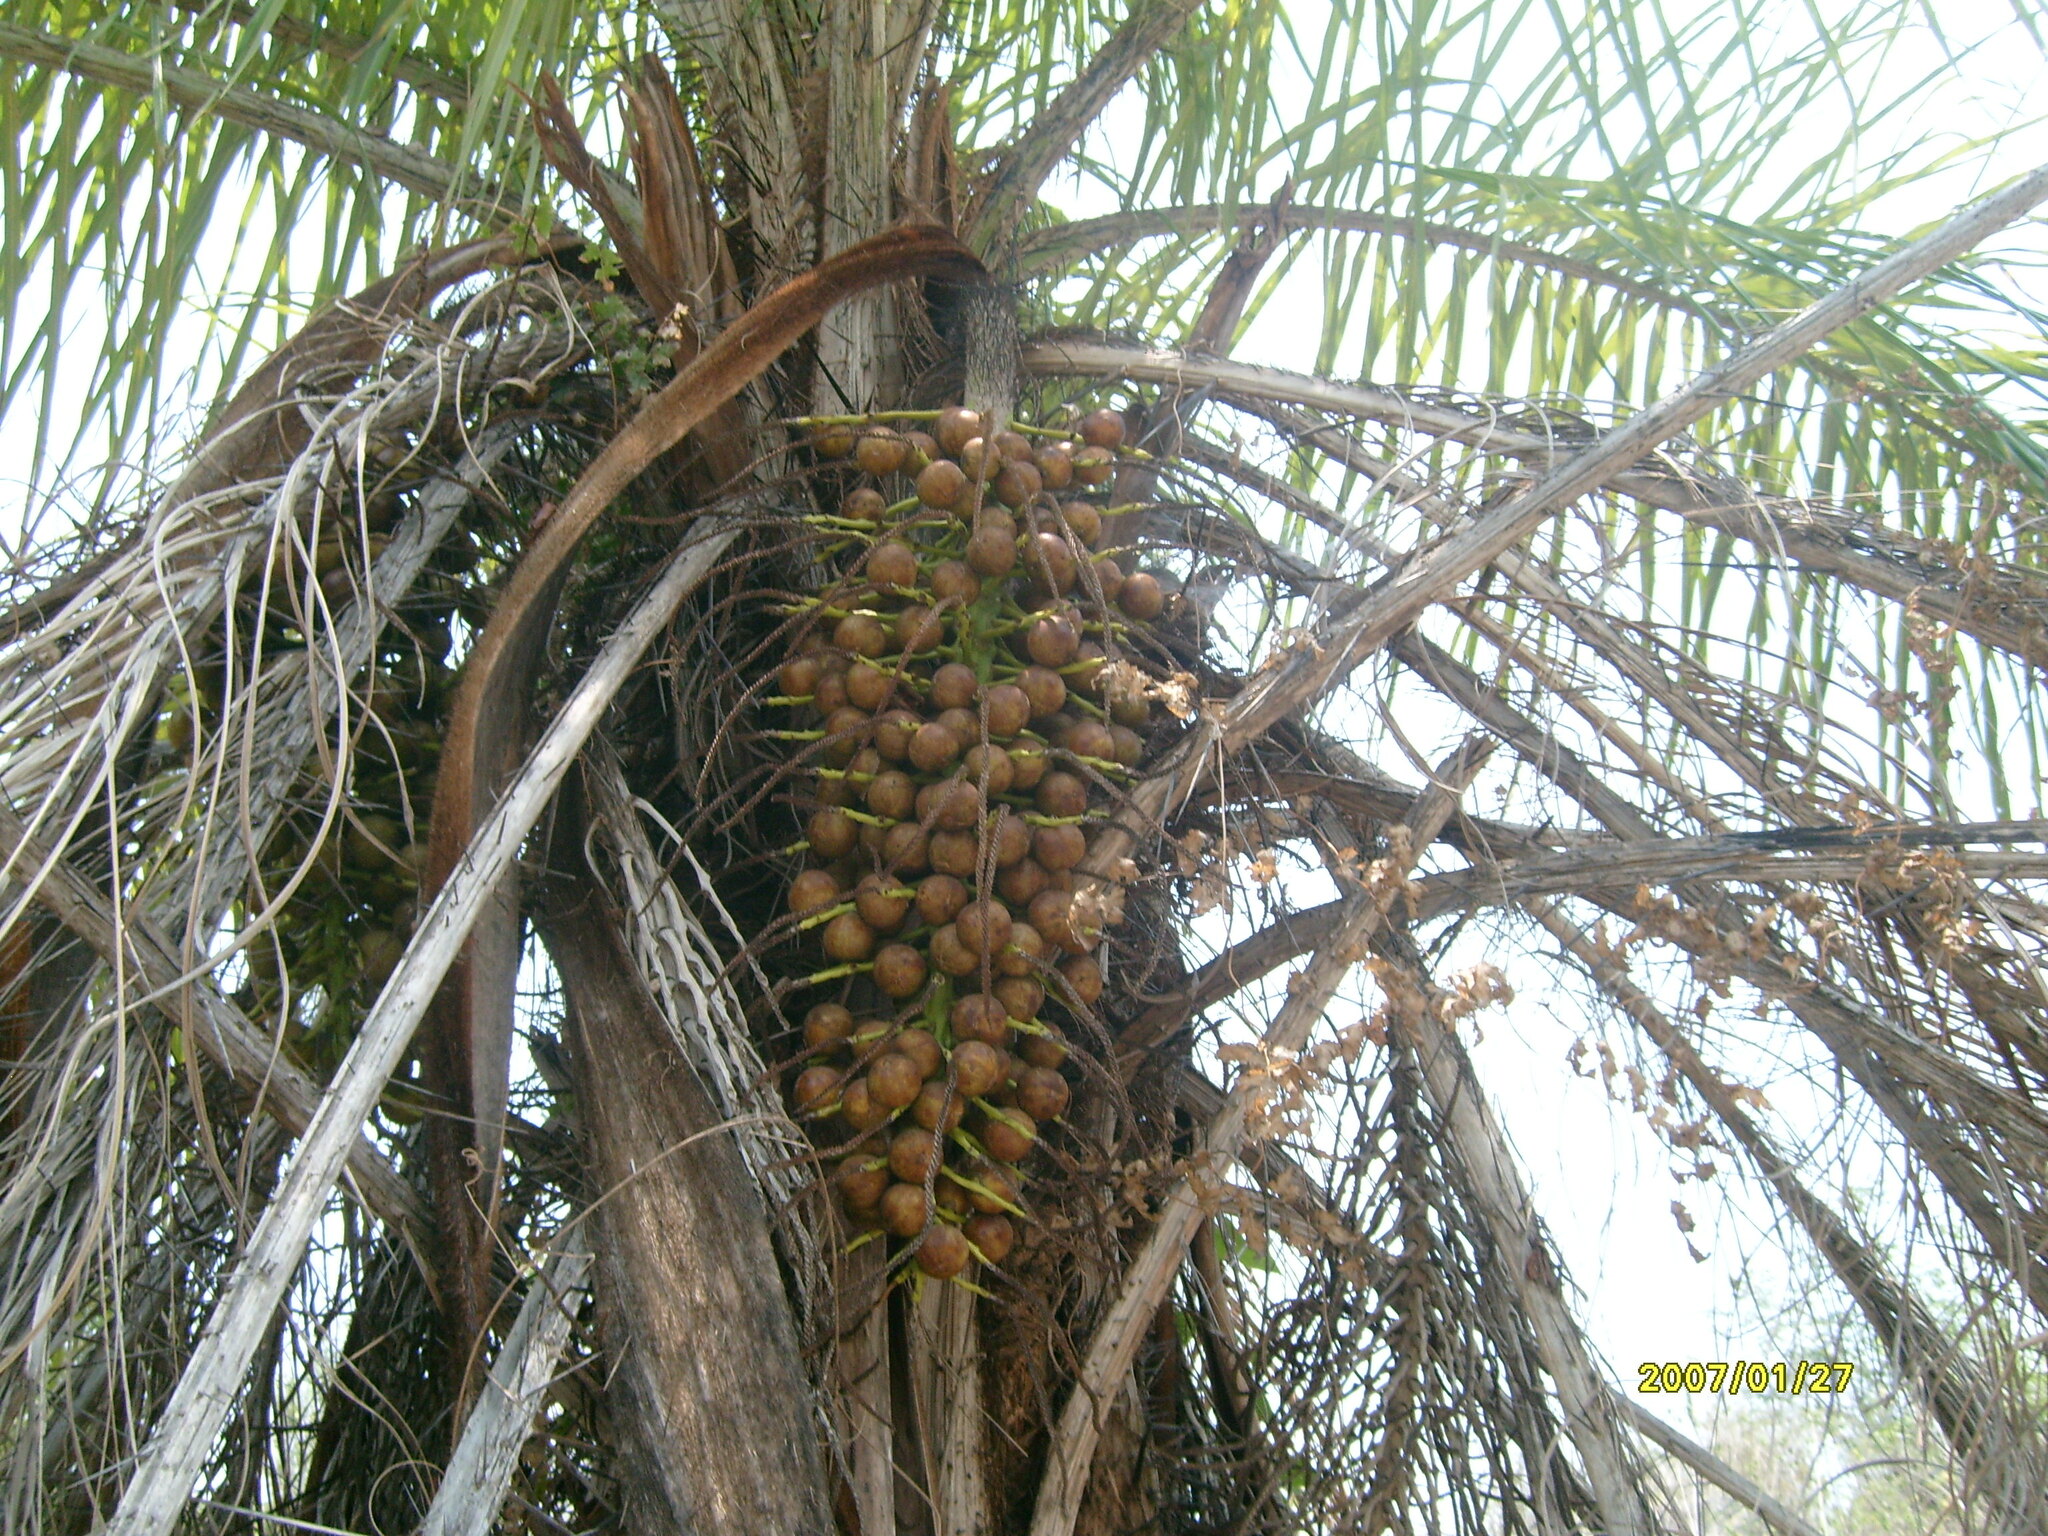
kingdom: Plantae
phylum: Tracheophyta
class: Liliopsida
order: Arecales
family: Arecaceae
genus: Acrocomia
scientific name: Acrocomia aculeata
